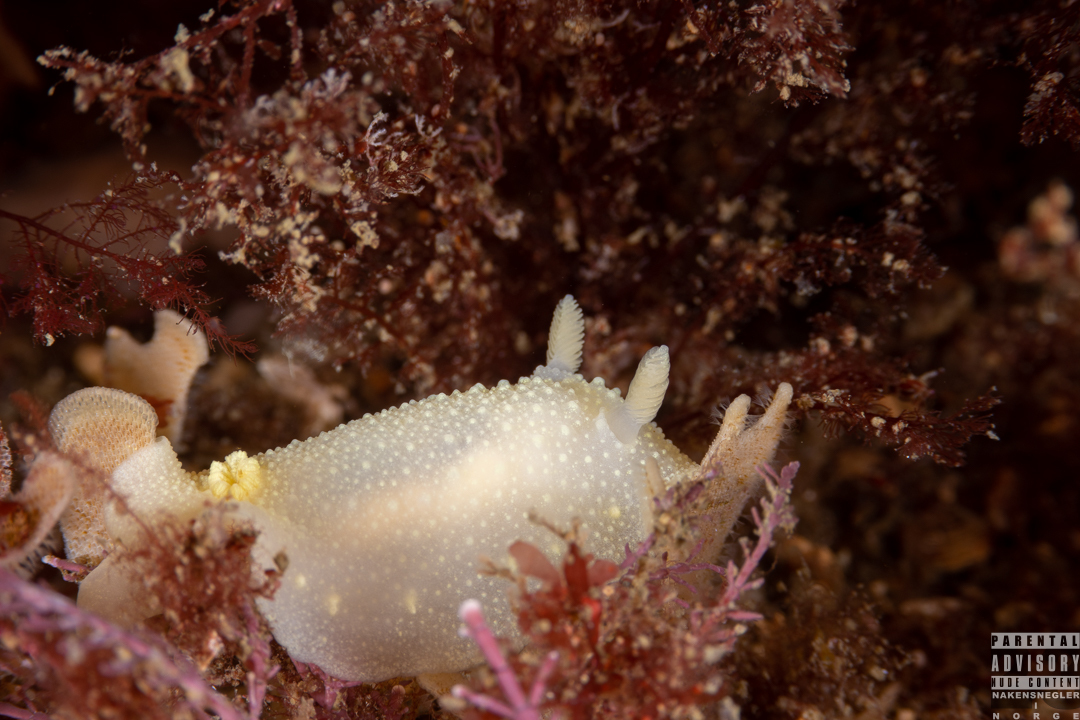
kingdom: Animalia
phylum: Mollusca
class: Gastropoda
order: Nudibranchia
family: Cadlinidae
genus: Cadlina
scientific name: Cadlina laevis
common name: White atlantic cadlina
